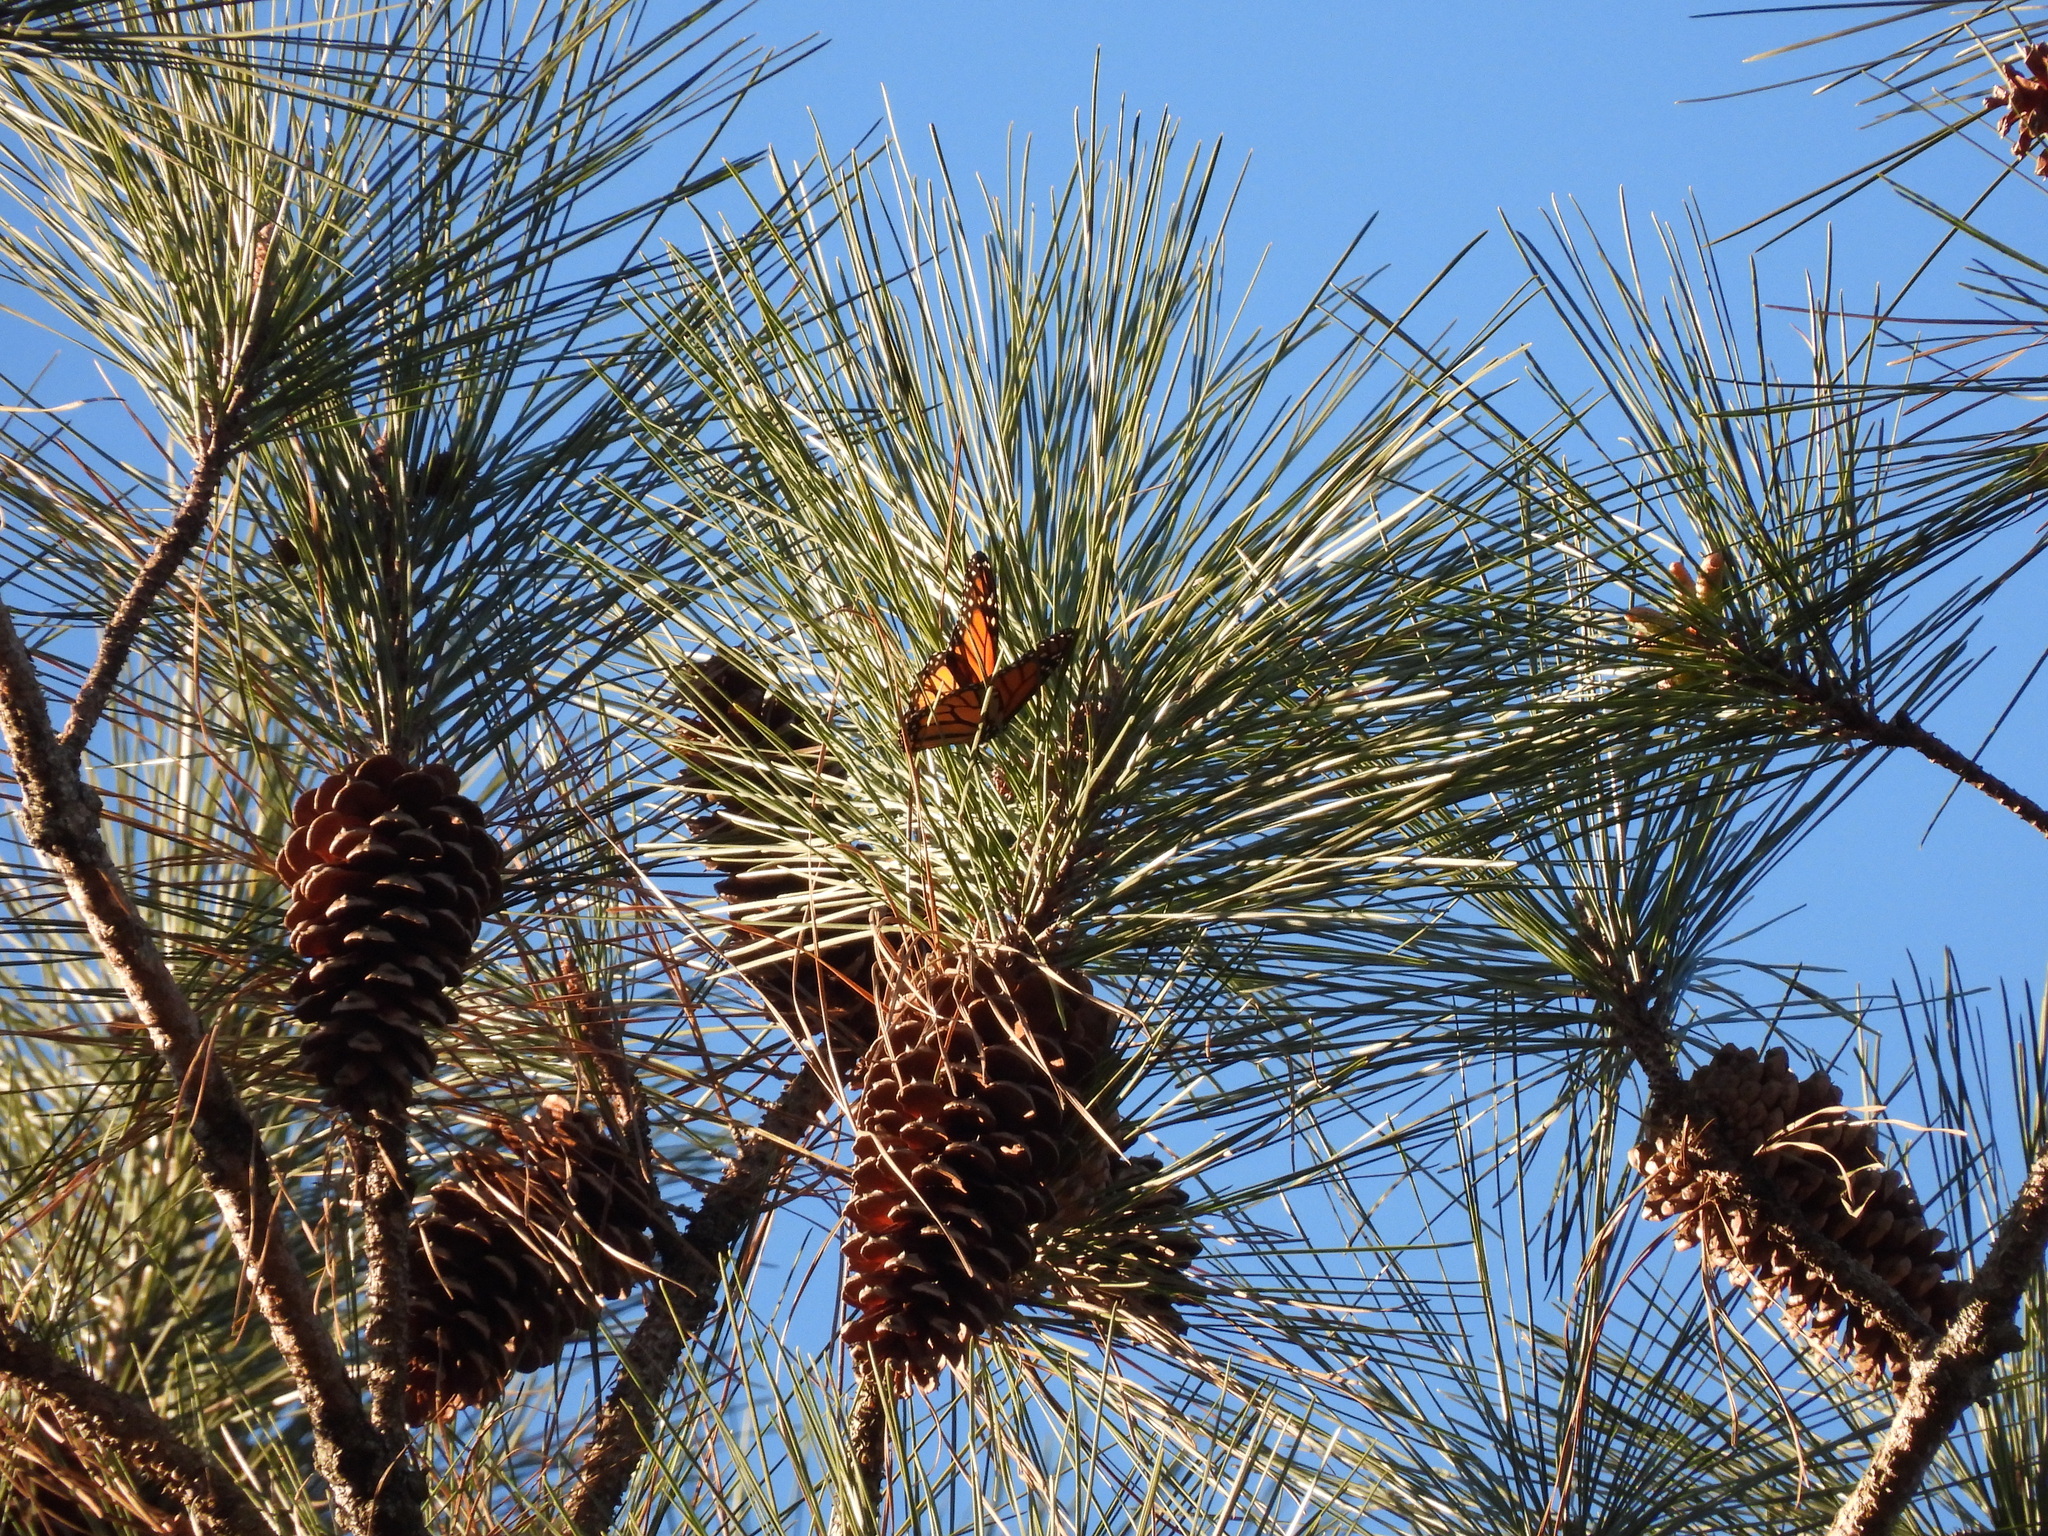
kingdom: Animalia
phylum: Arthropoda
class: Insecta
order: Lepidoptera
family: Nymphalidae
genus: Danaus
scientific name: Danaus plexippus
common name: Monarch
